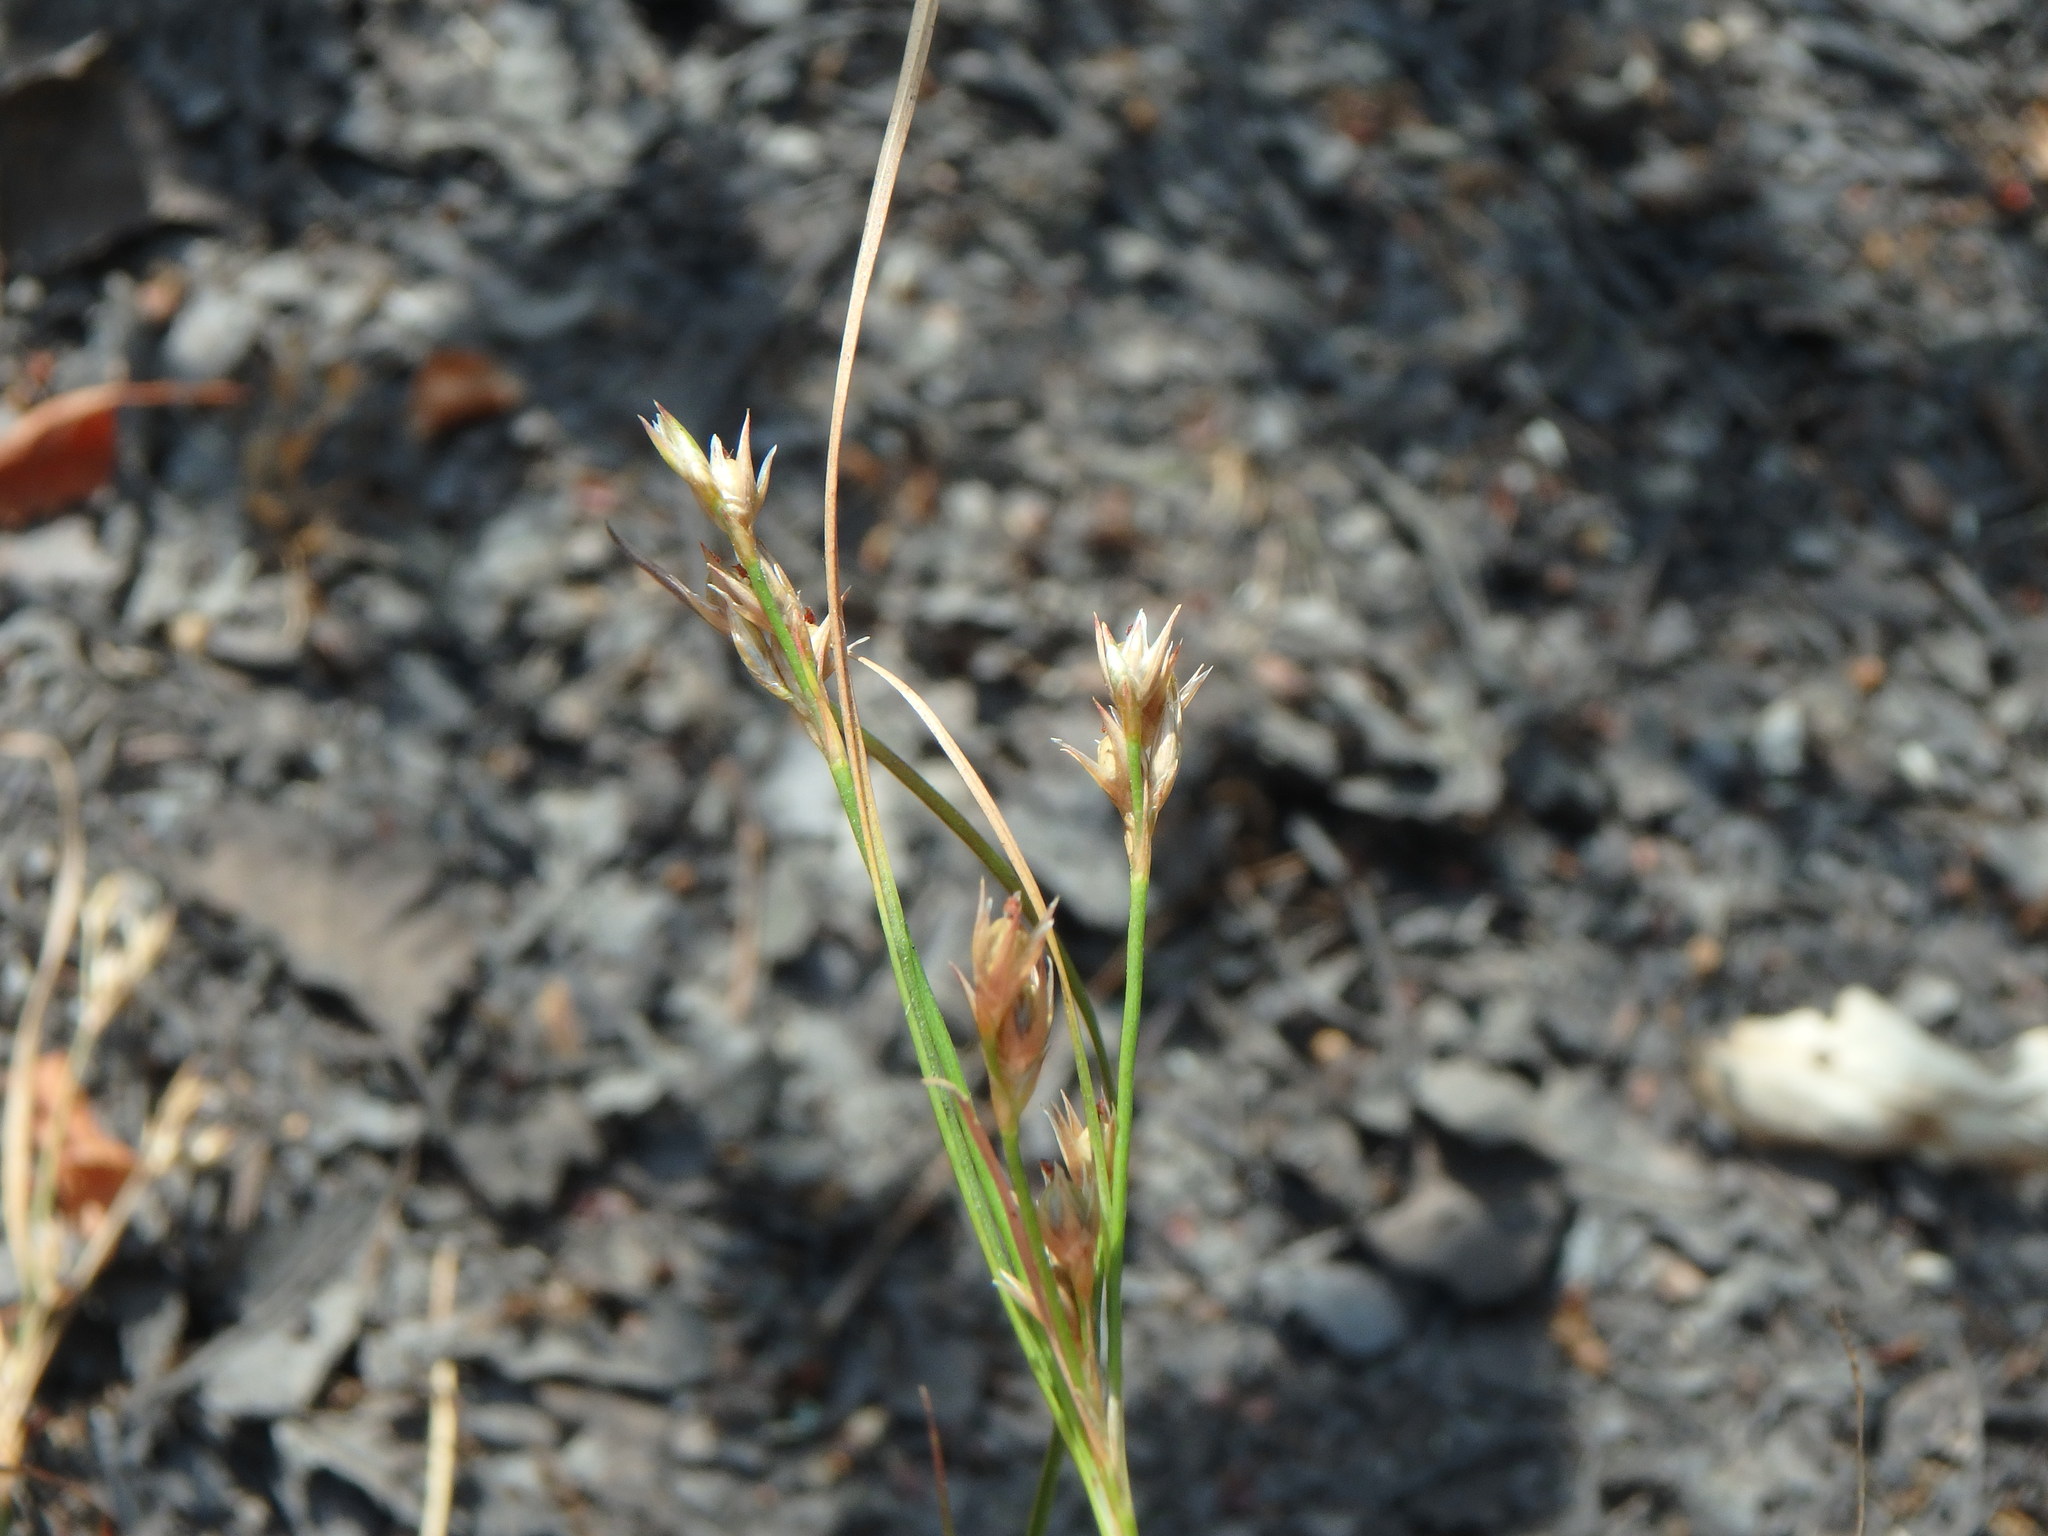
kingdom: Plantae
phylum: Tracheophyta
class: Liliopsida
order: Poales
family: Juncaceae
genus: Juncus
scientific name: Juncus tenuis
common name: Slender rush
